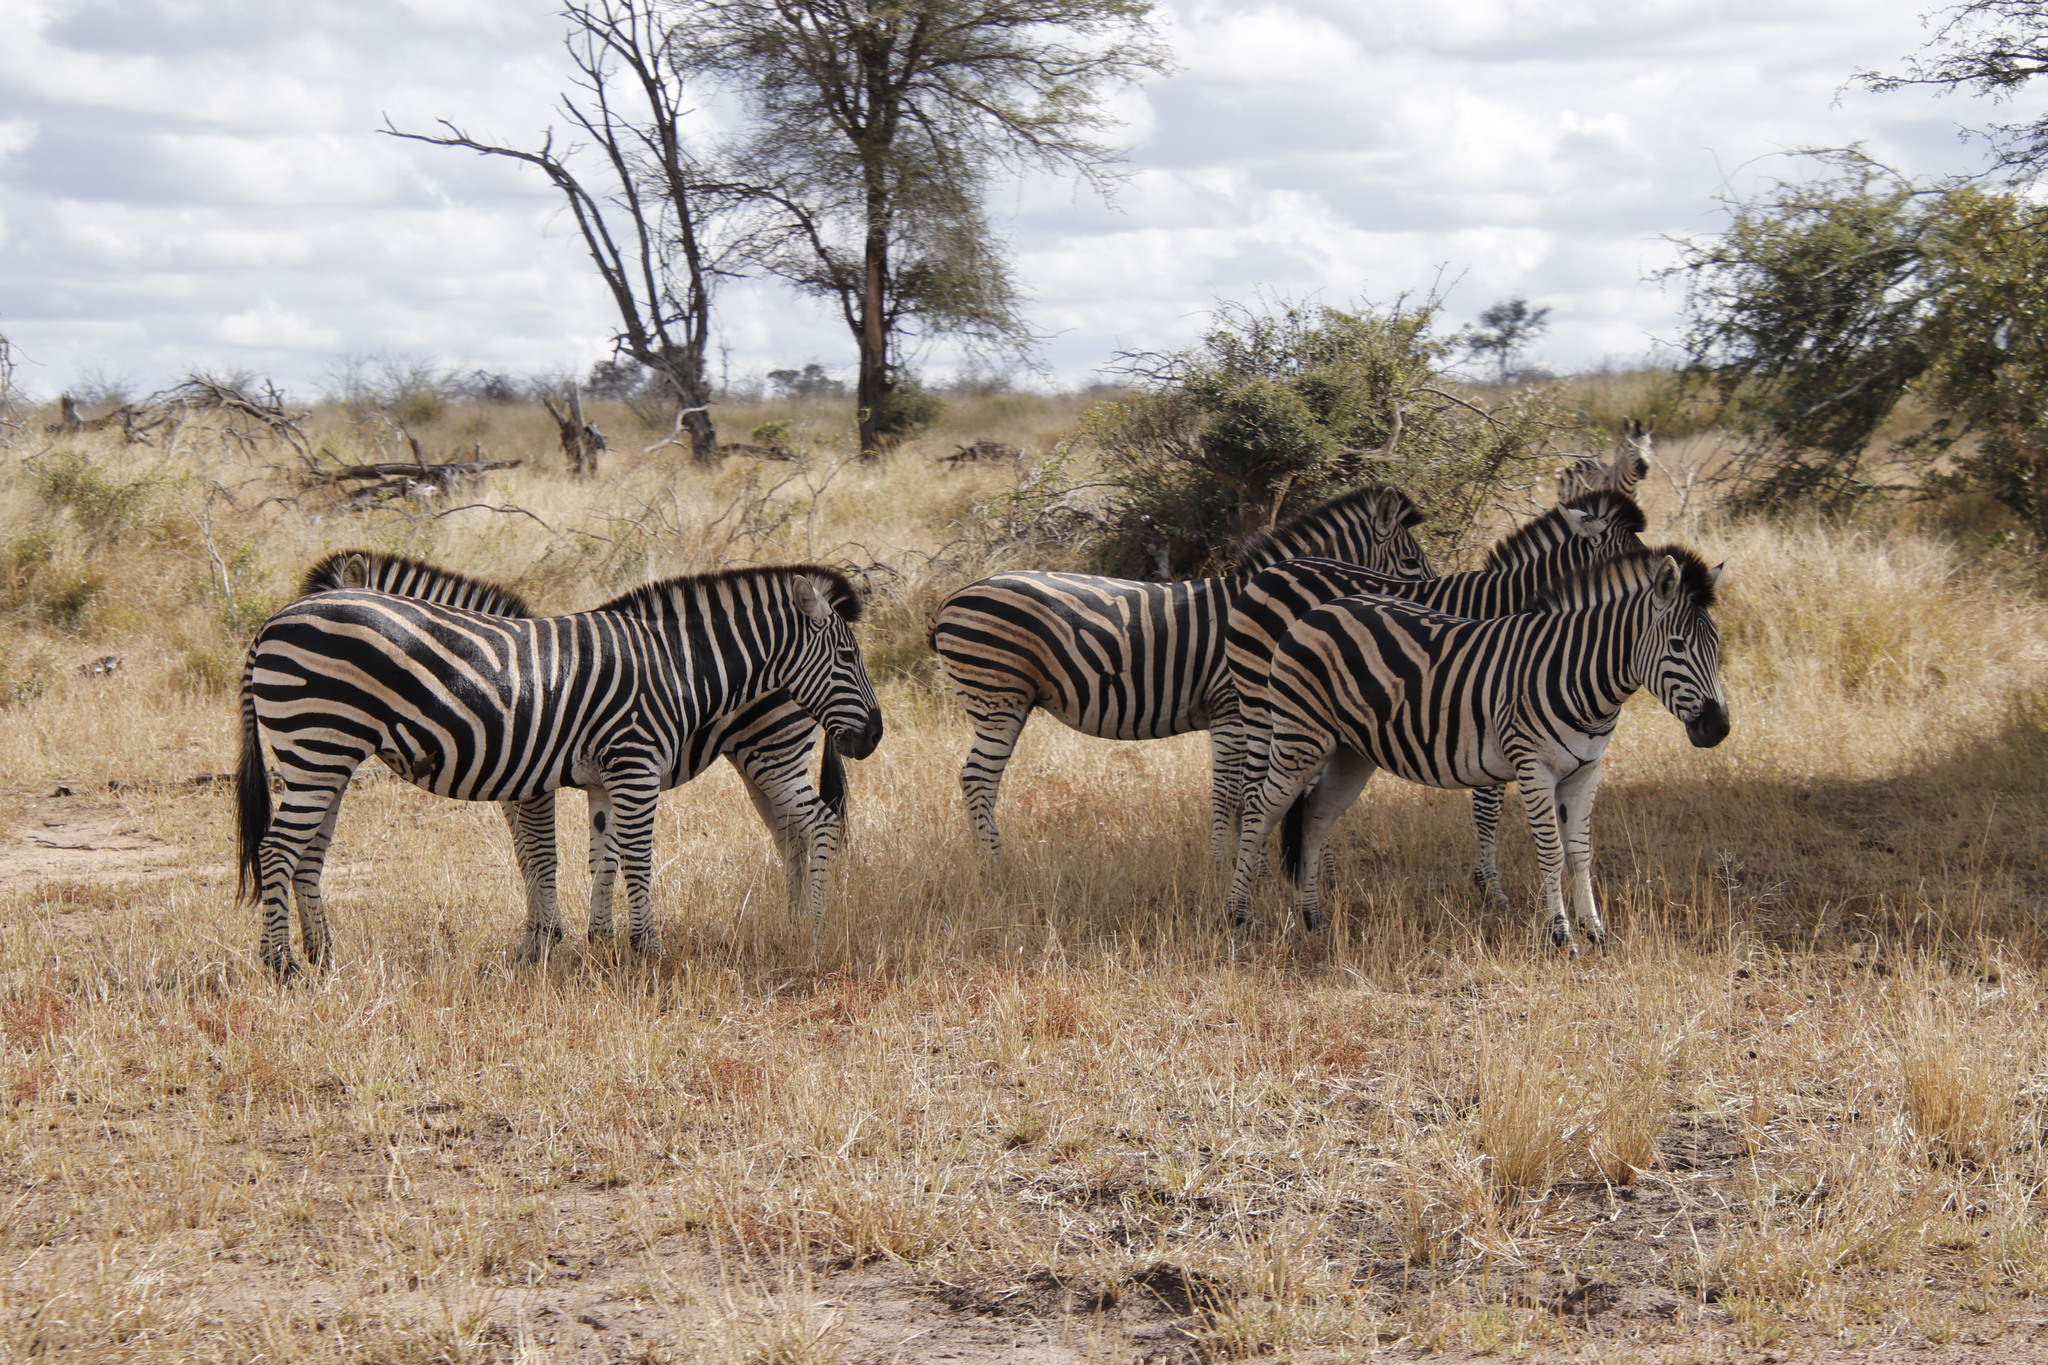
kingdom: Animalia
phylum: Chordata
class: Mammalia
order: Perissodactyla
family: Equidae
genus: Equus
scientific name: Equus quagga
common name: Plains zebra
